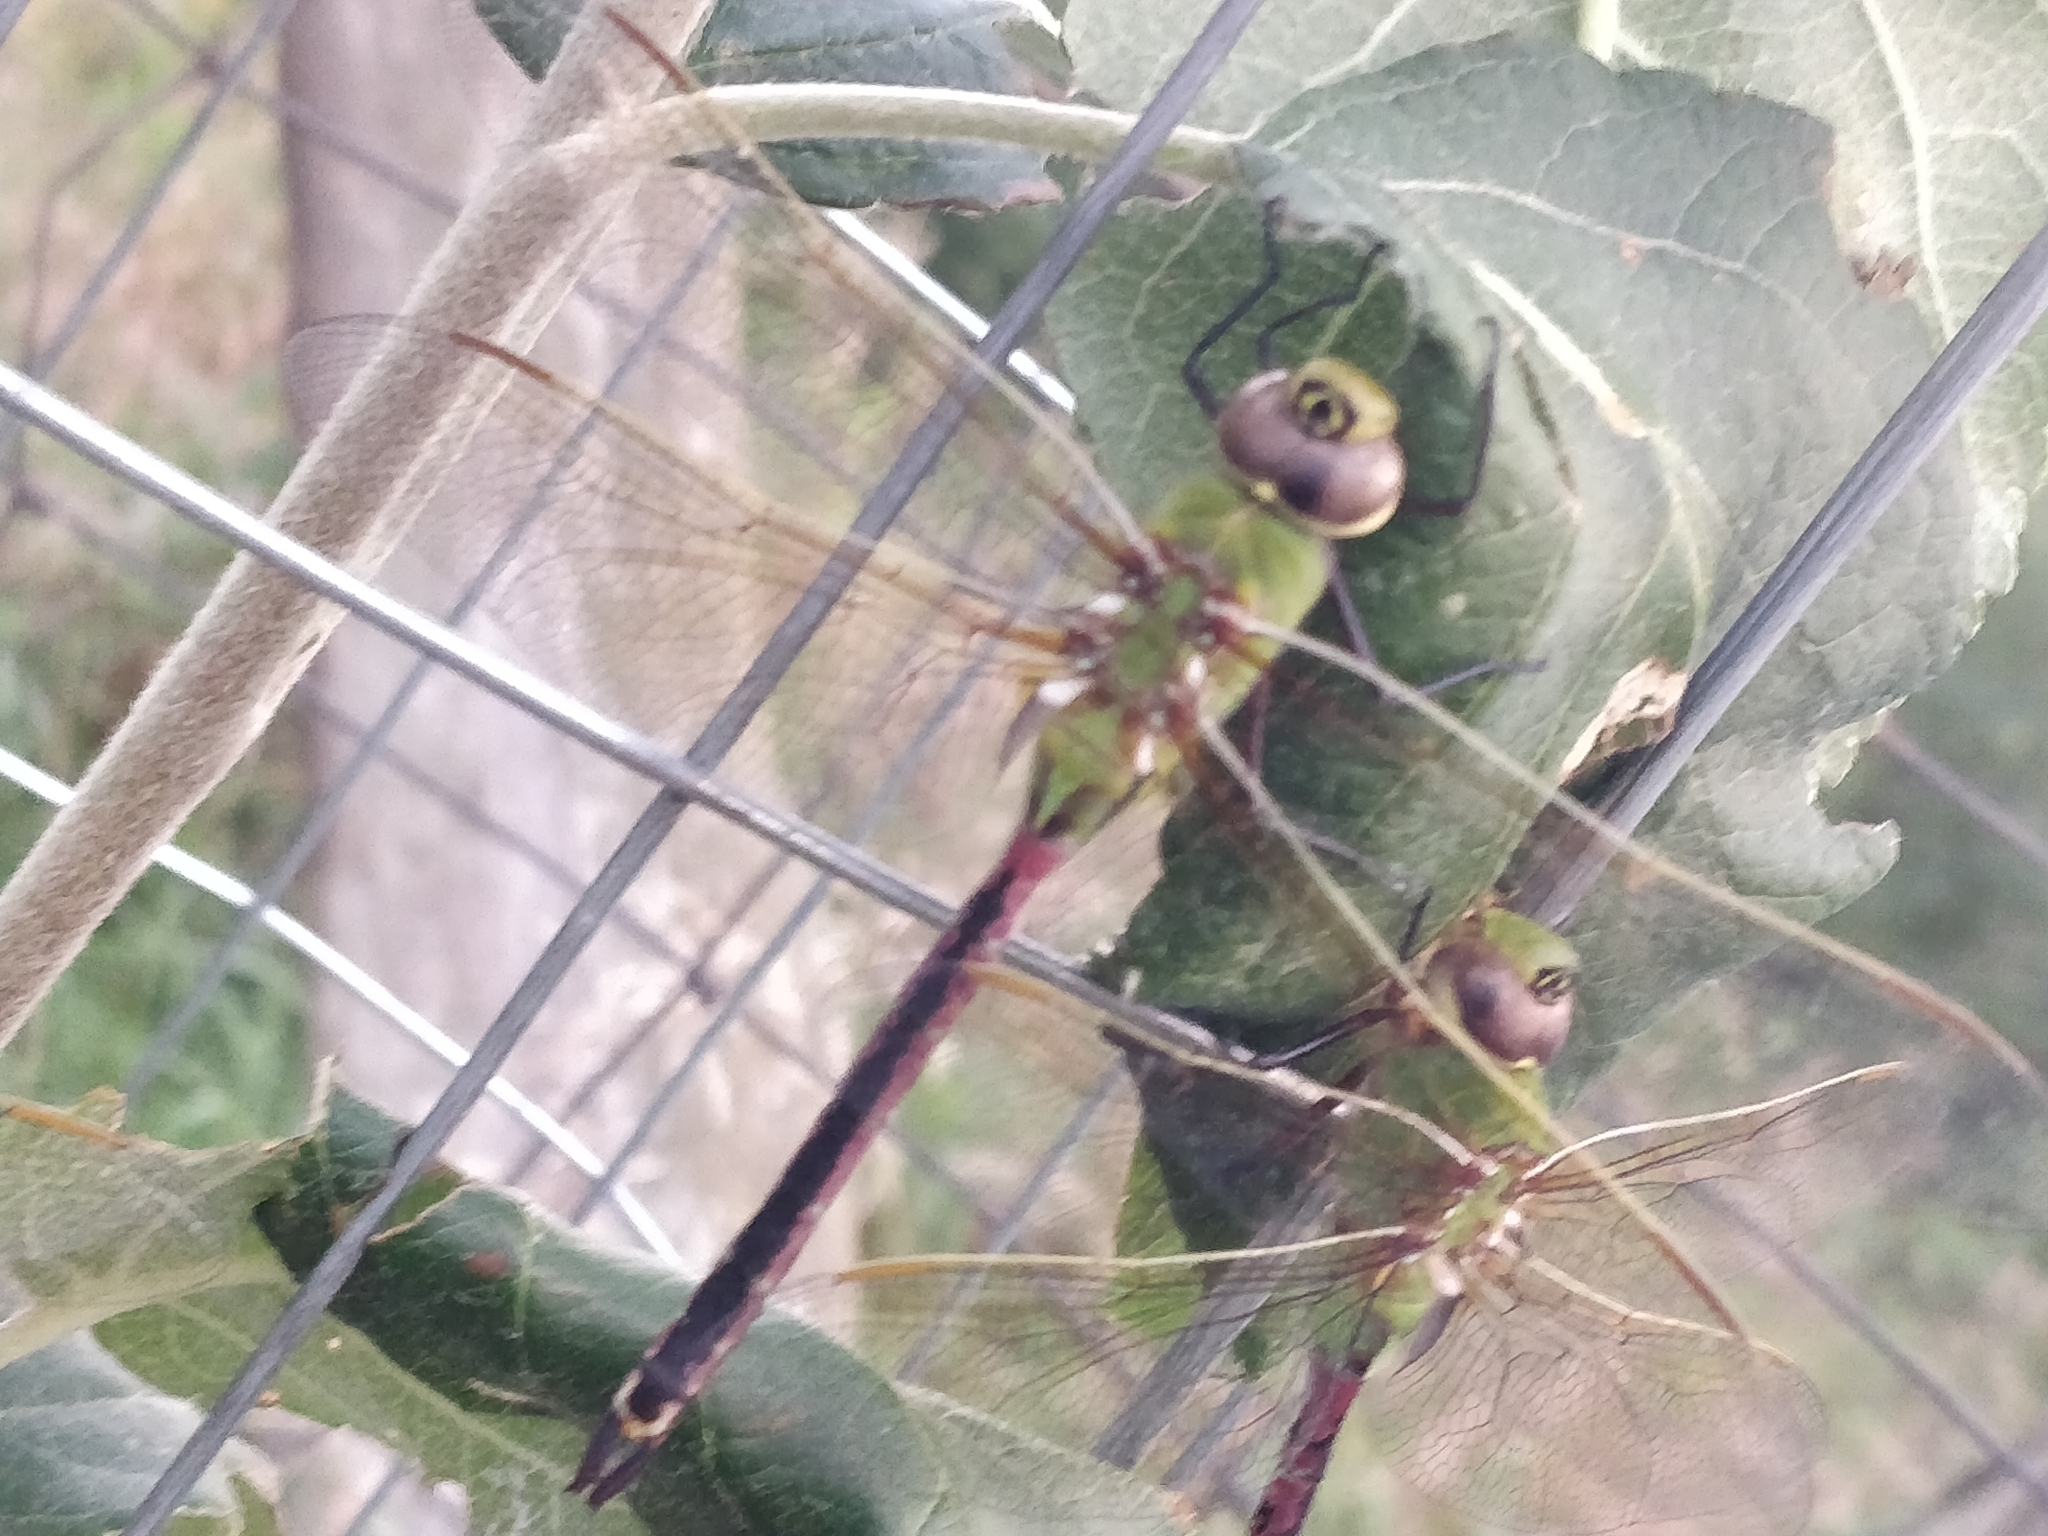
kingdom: Animalia
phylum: Arthropoda
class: Insecta
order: Odonata
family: Aeshnidae
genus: Anax
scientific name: Anax junius
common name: Common green darner
